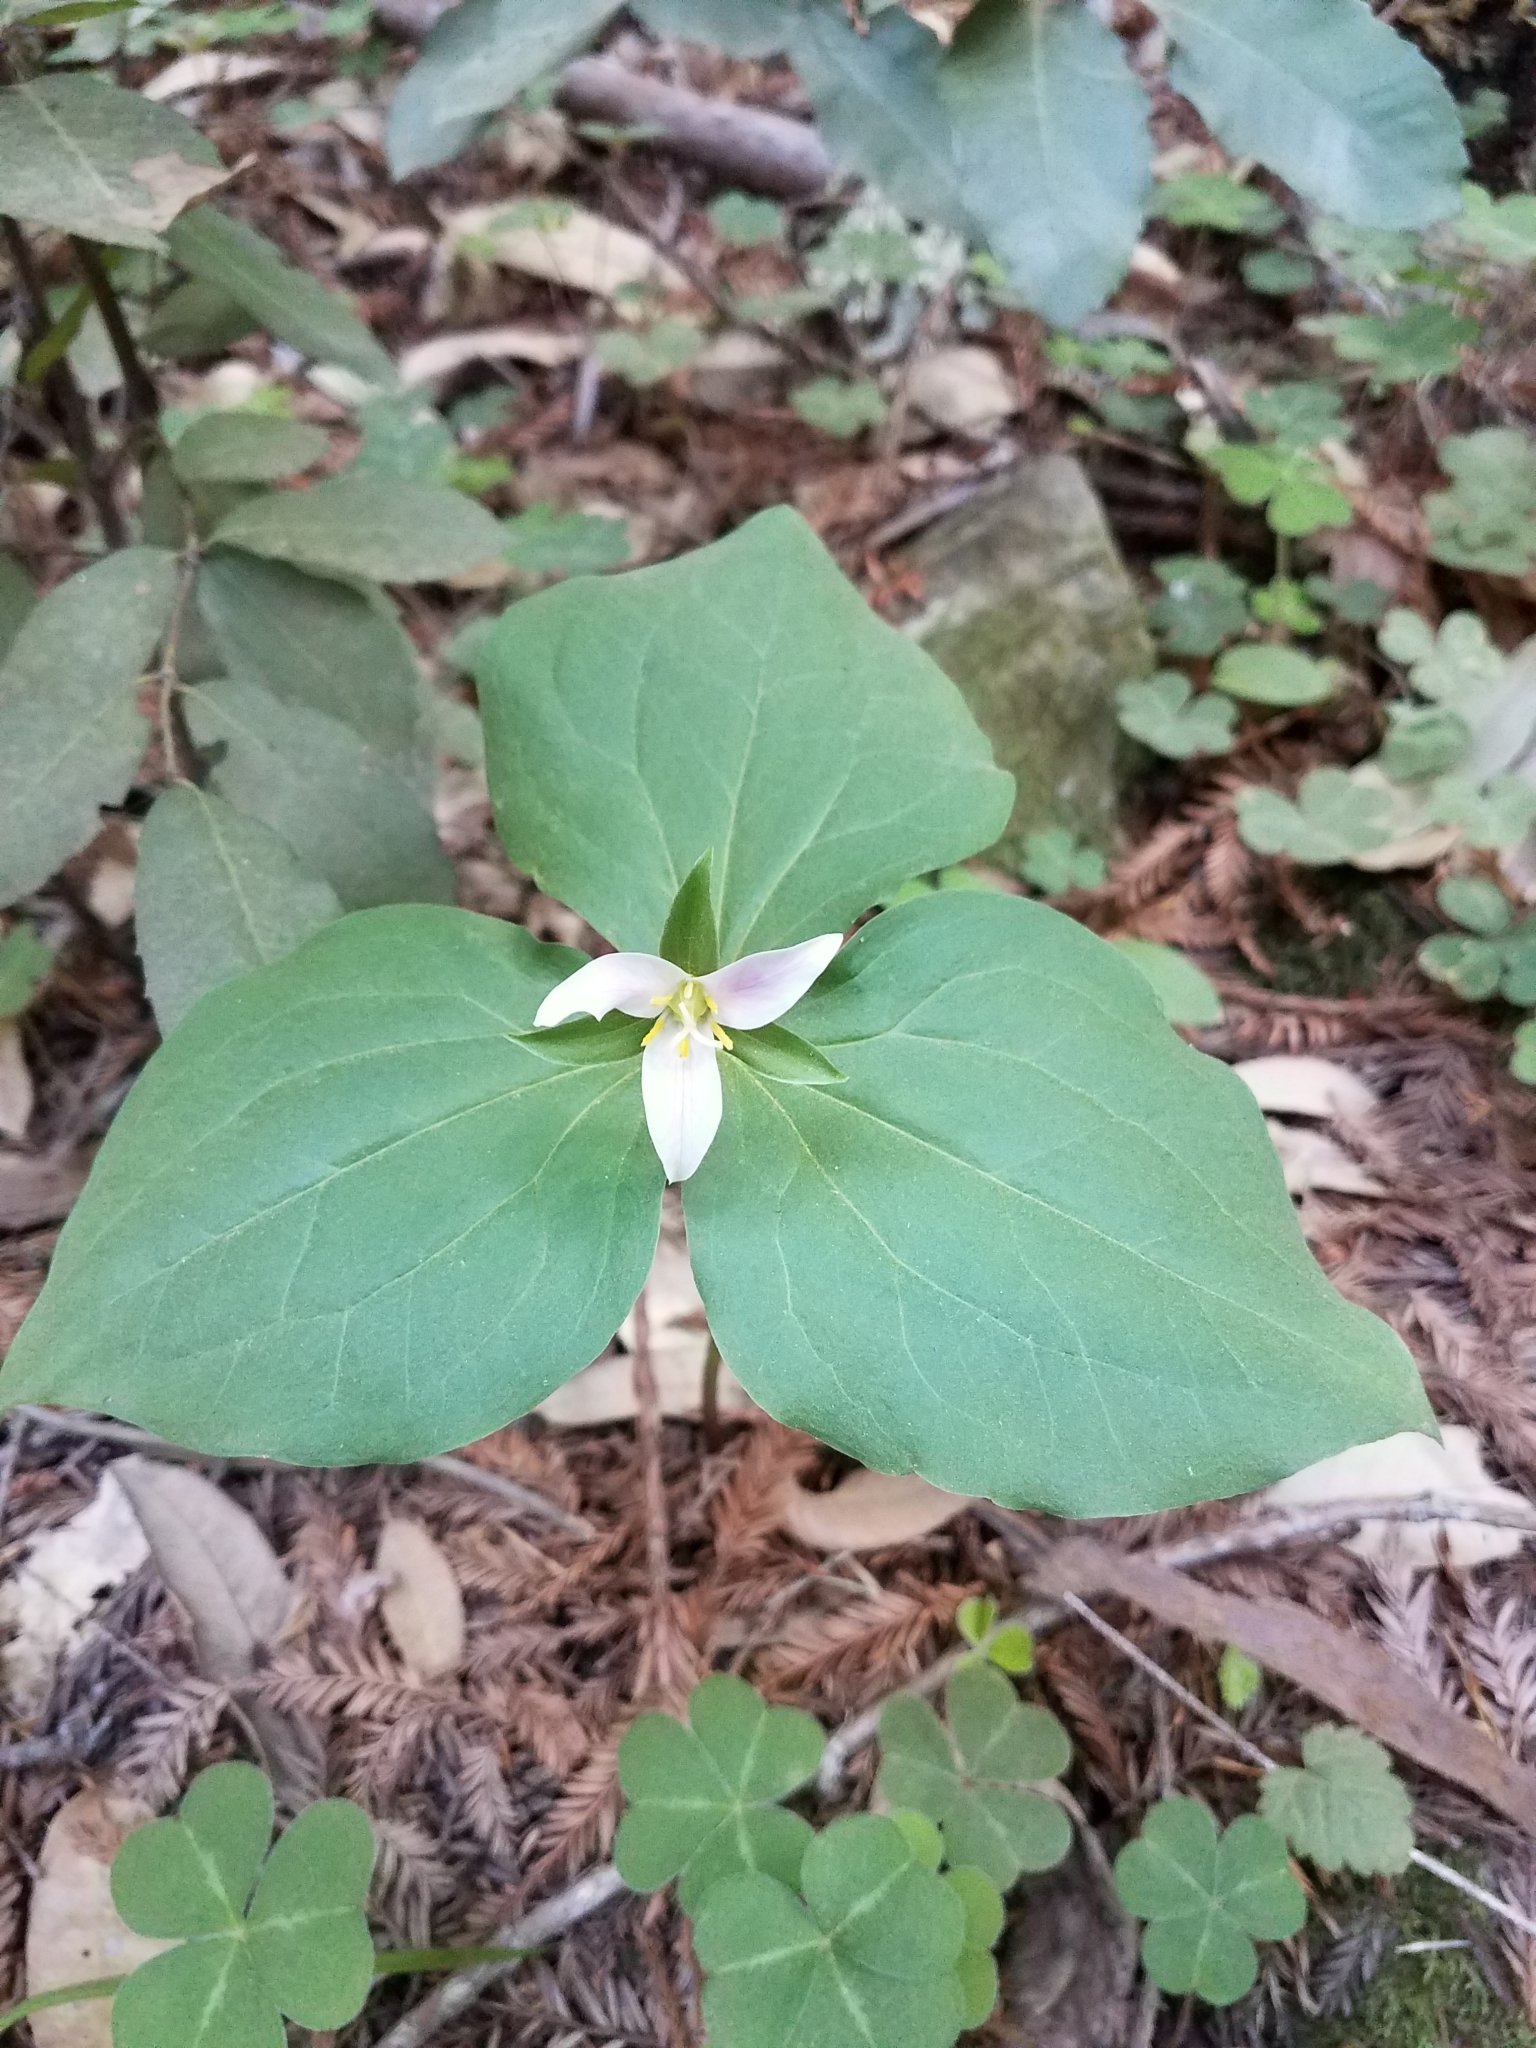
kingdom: Plantae
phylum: Tracheophyta
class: Liliopsida
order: Liliales
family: Melanthiaceae
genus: Trillium
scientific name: Trillium ovatum
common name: Pacific trillium
